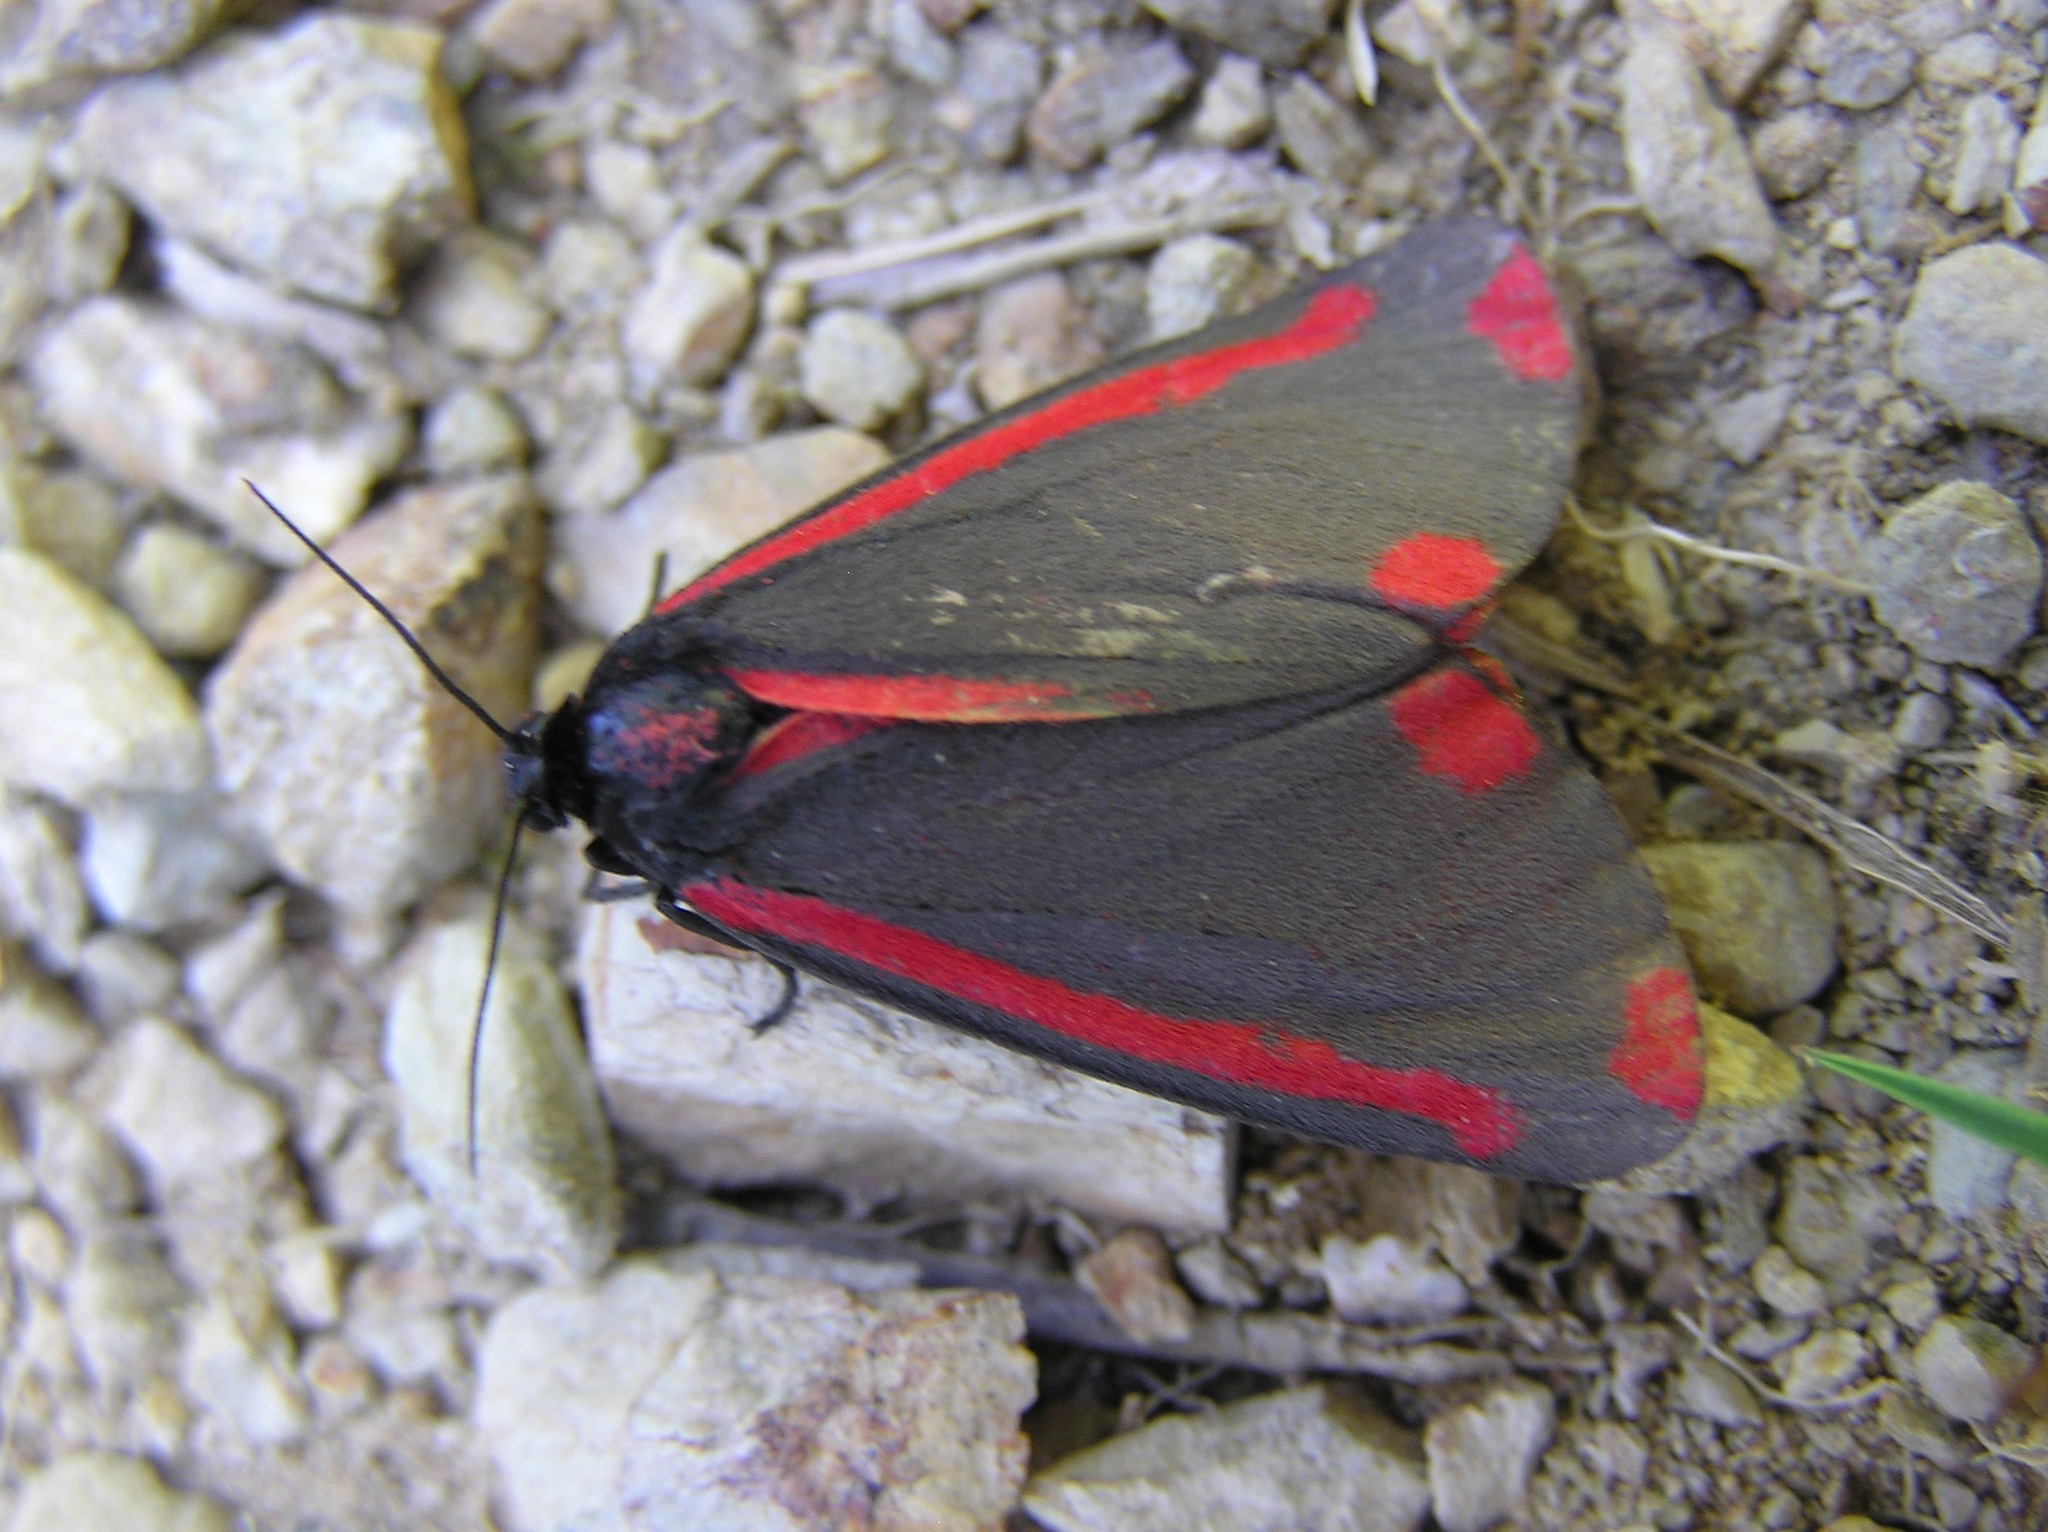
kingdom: Animalia
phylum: Arthropoda
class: Insecta
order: Lepidoptera
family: Erebidae
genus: Tyria
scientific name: Tyria jacobaeae
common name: Cinnabar
